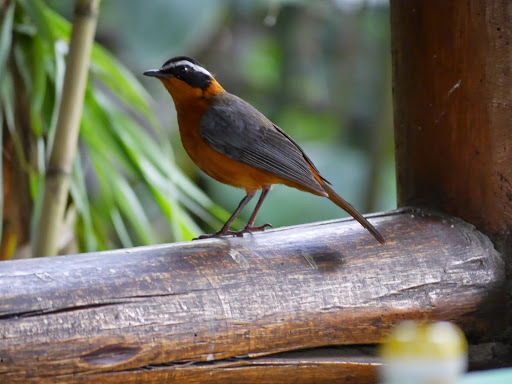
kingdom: Animalia
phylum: Chordata
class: Aves
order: Passeriformes
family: Muscicapidae
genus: Cossypha
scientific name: Cossypha heuglini
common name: White-browed robin-chat
